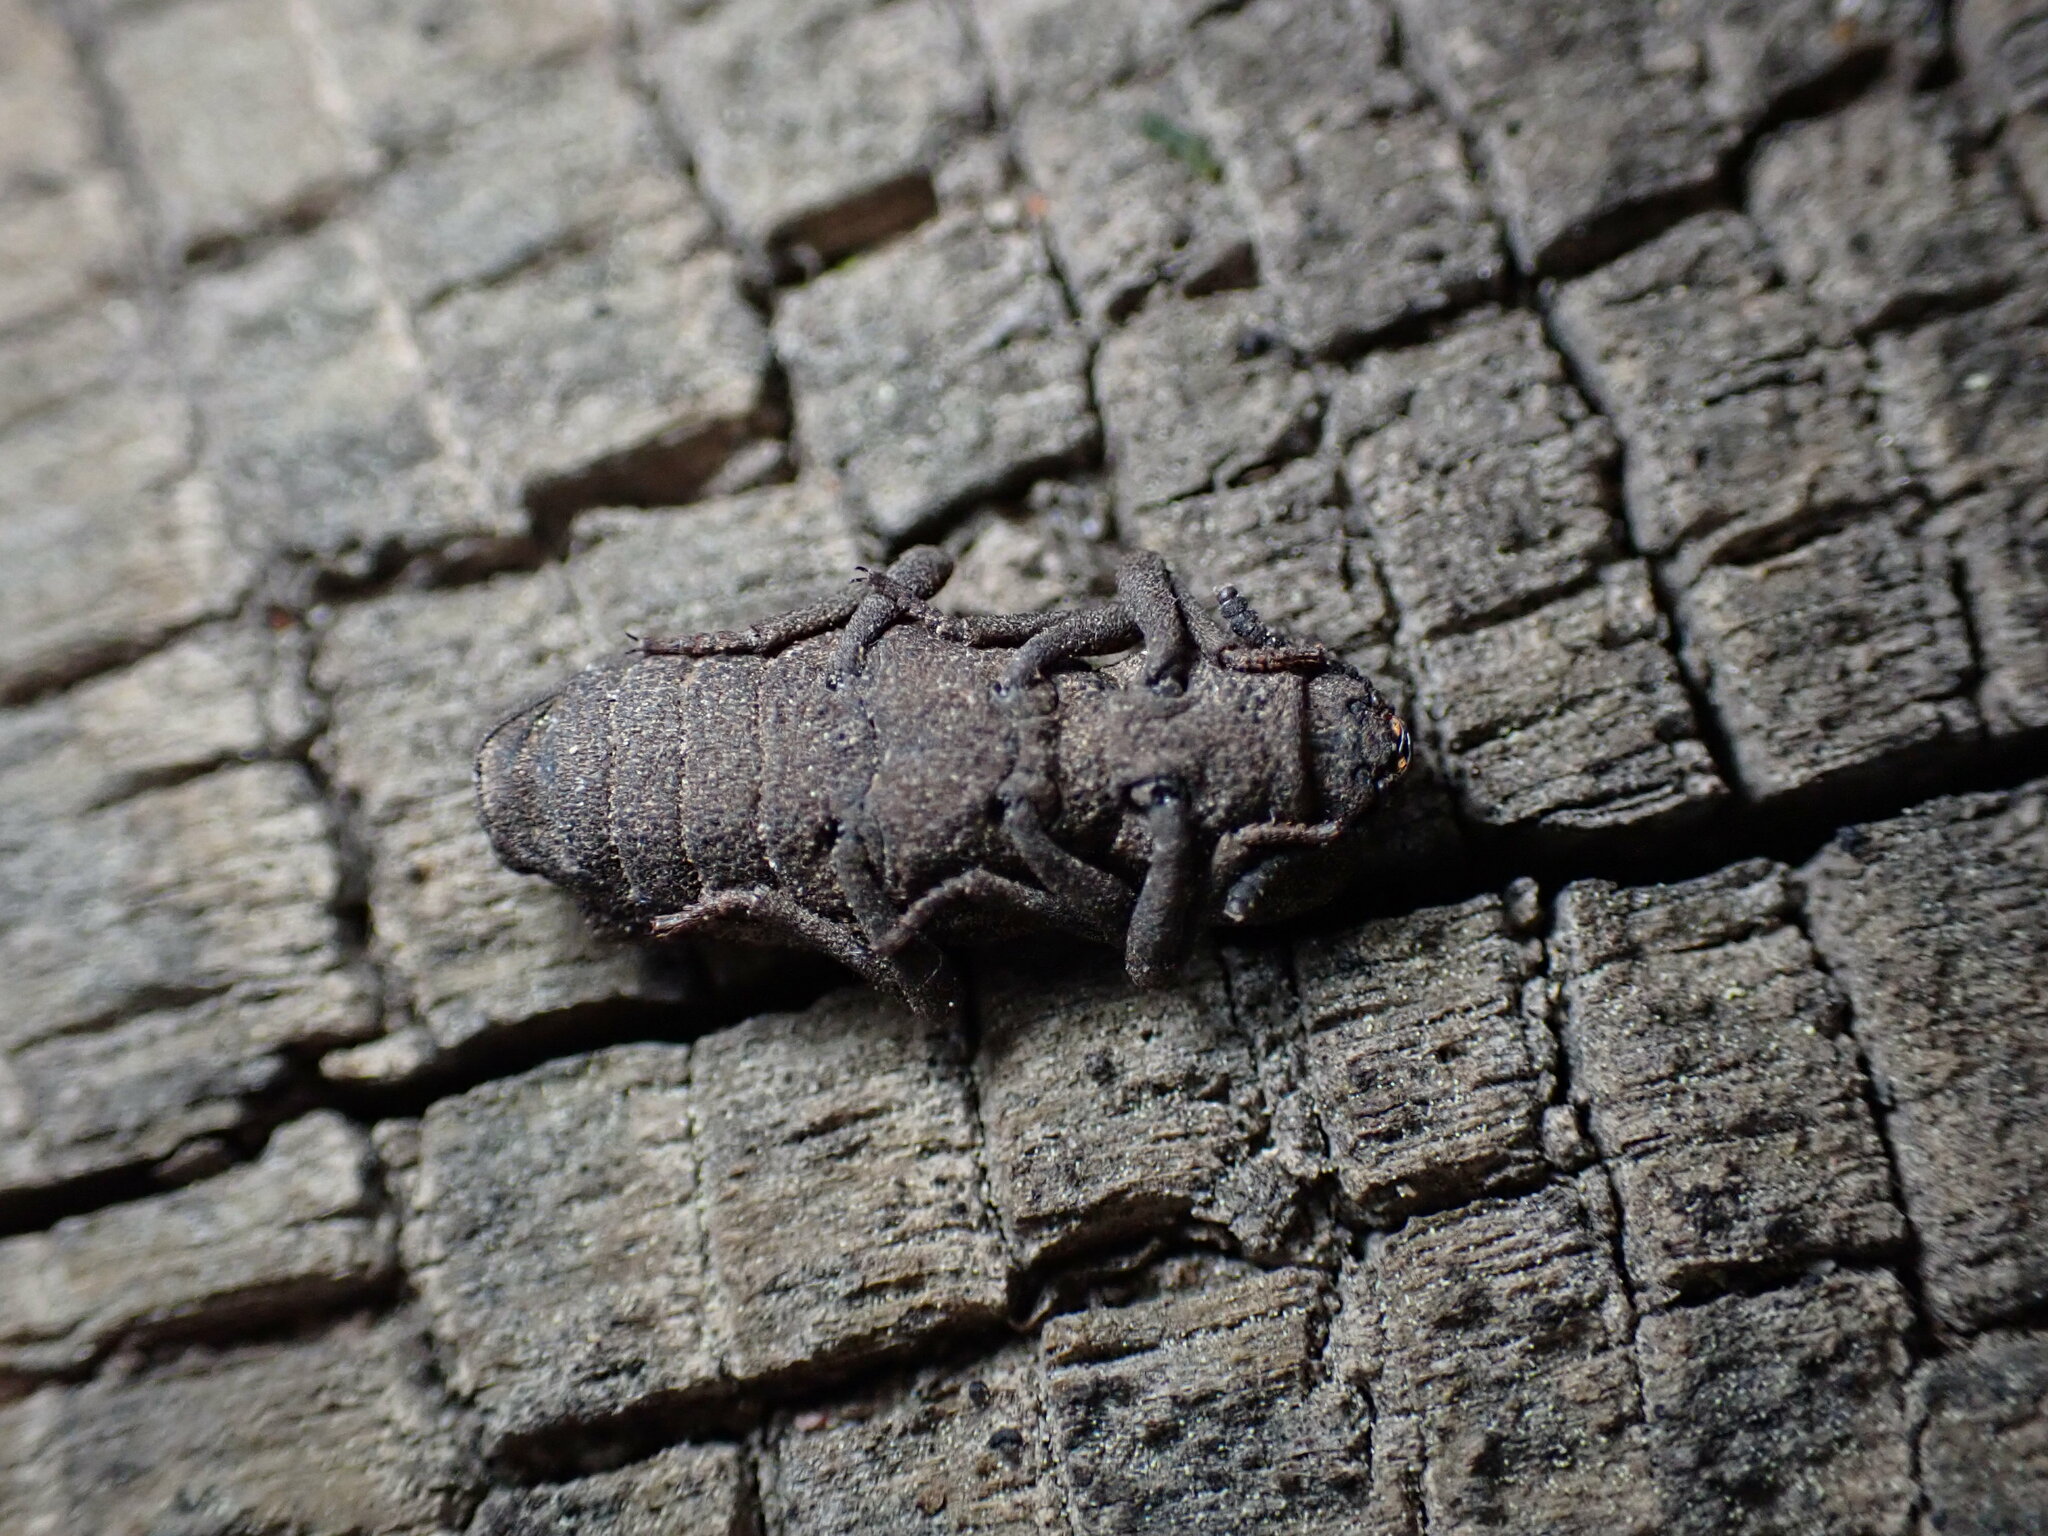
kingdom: Animalia
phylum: Arthropoda
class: Insecta
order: Coleoptera
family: Zopheridae
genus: Phellopsis
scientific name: Phellopsis porcata
